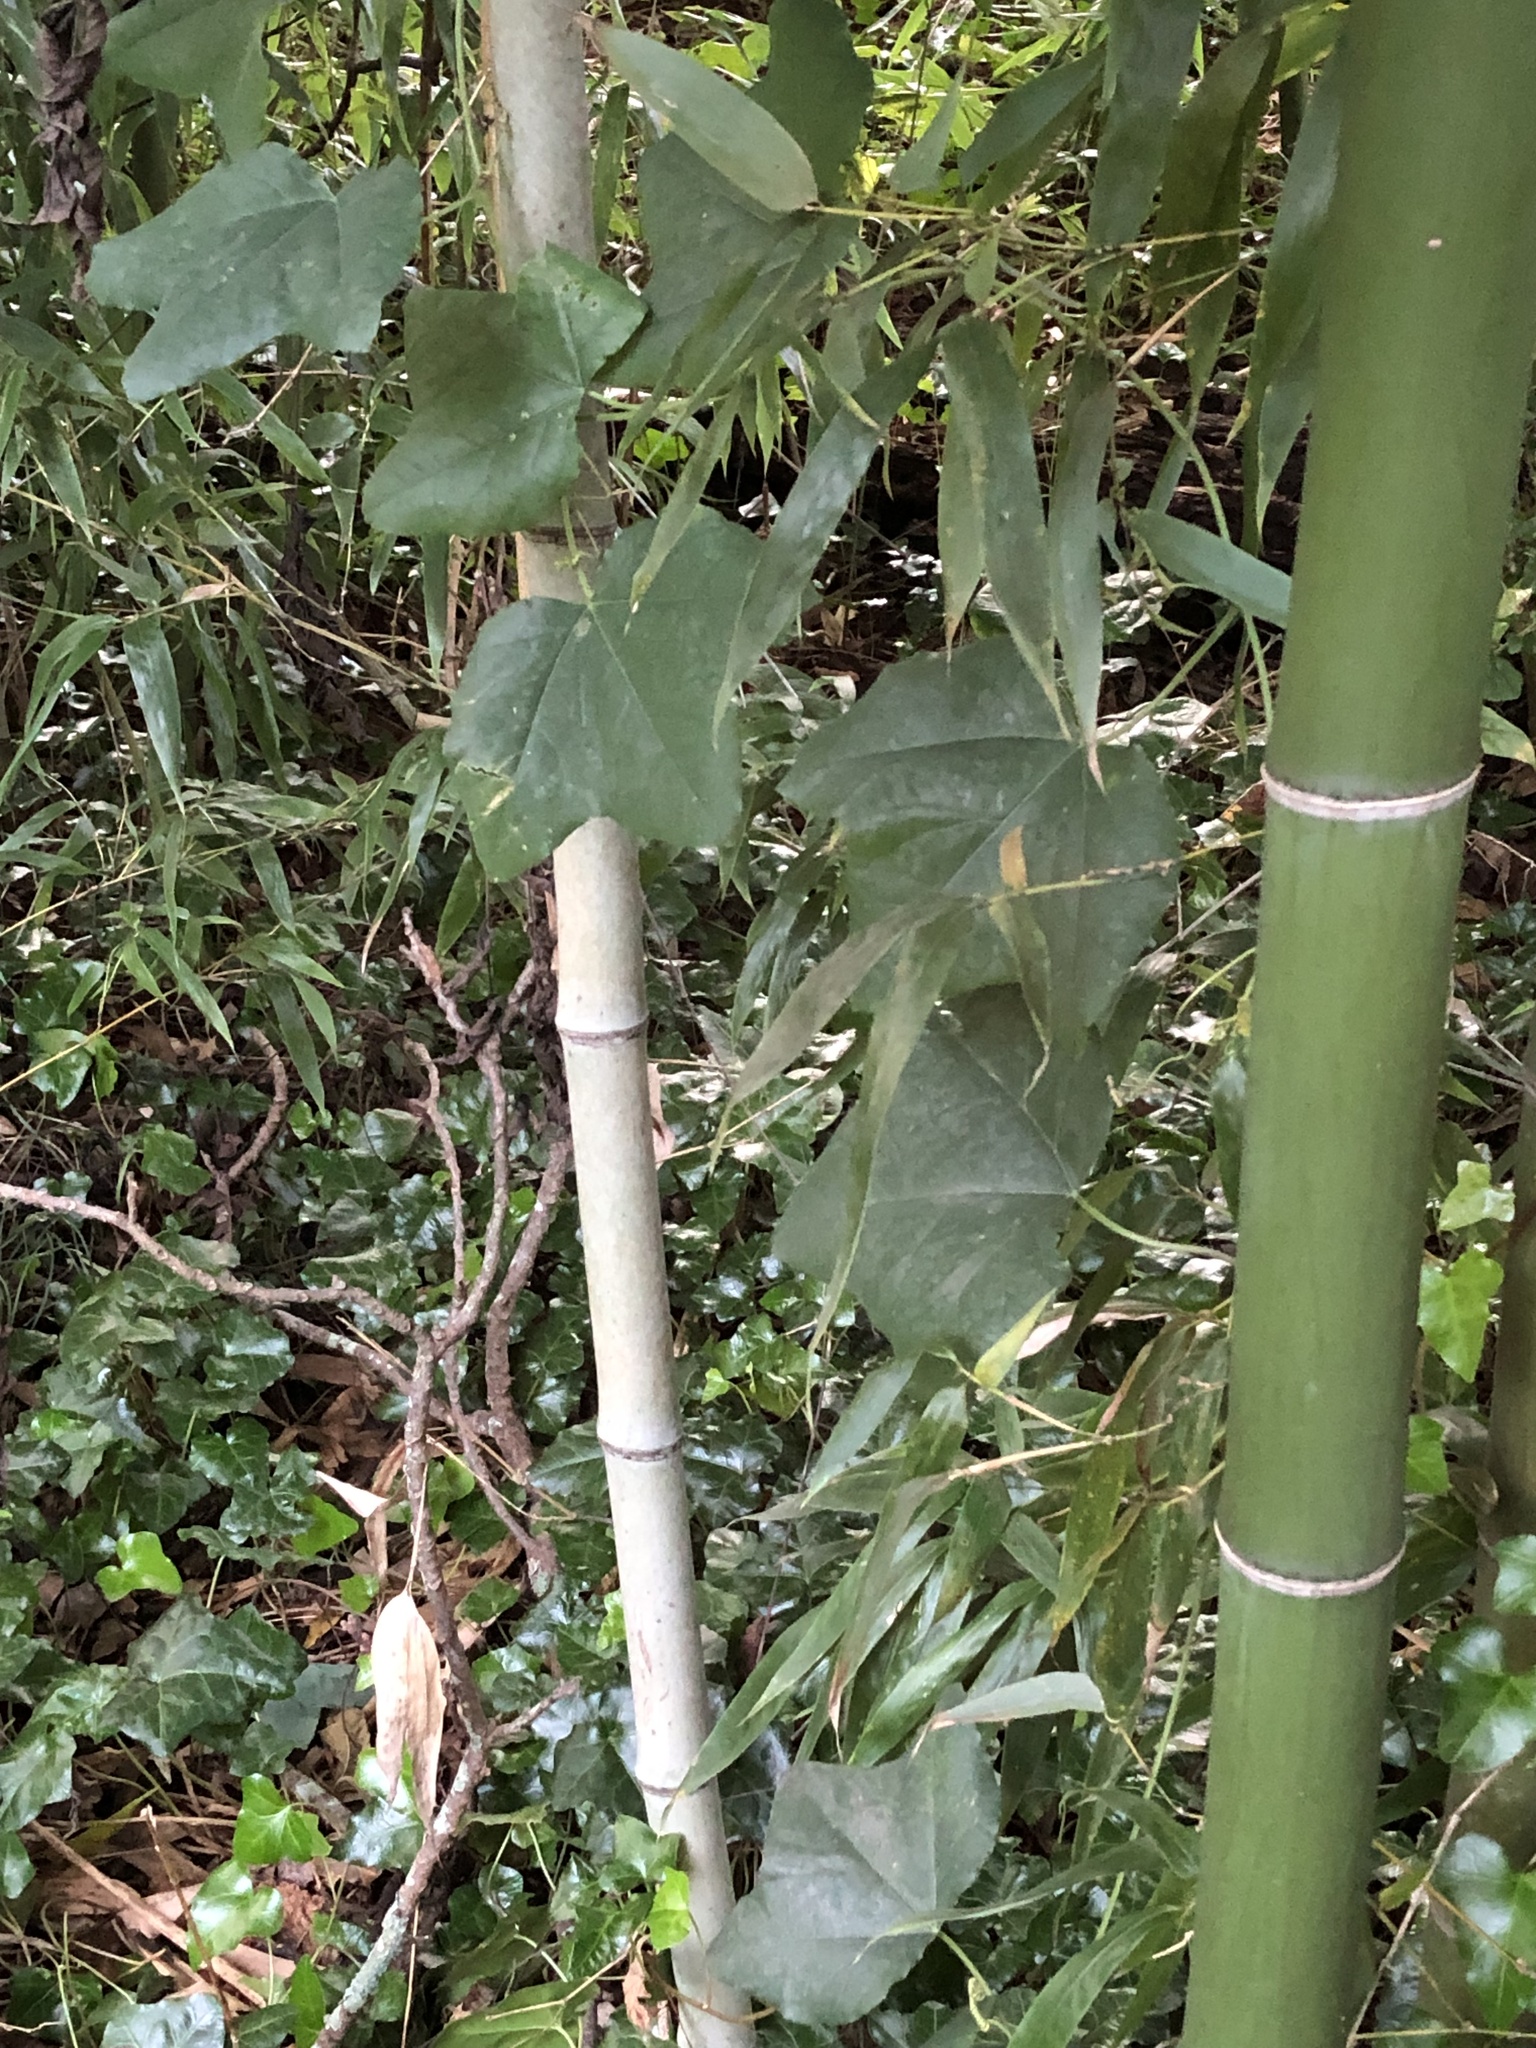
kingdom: Plantae
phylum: Tracheophyta
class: Magnoliopsida
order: Malpighiales
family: Passifloraceae
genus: Passiflora
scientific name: Passiflora lutea
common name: Yellow passionflower
